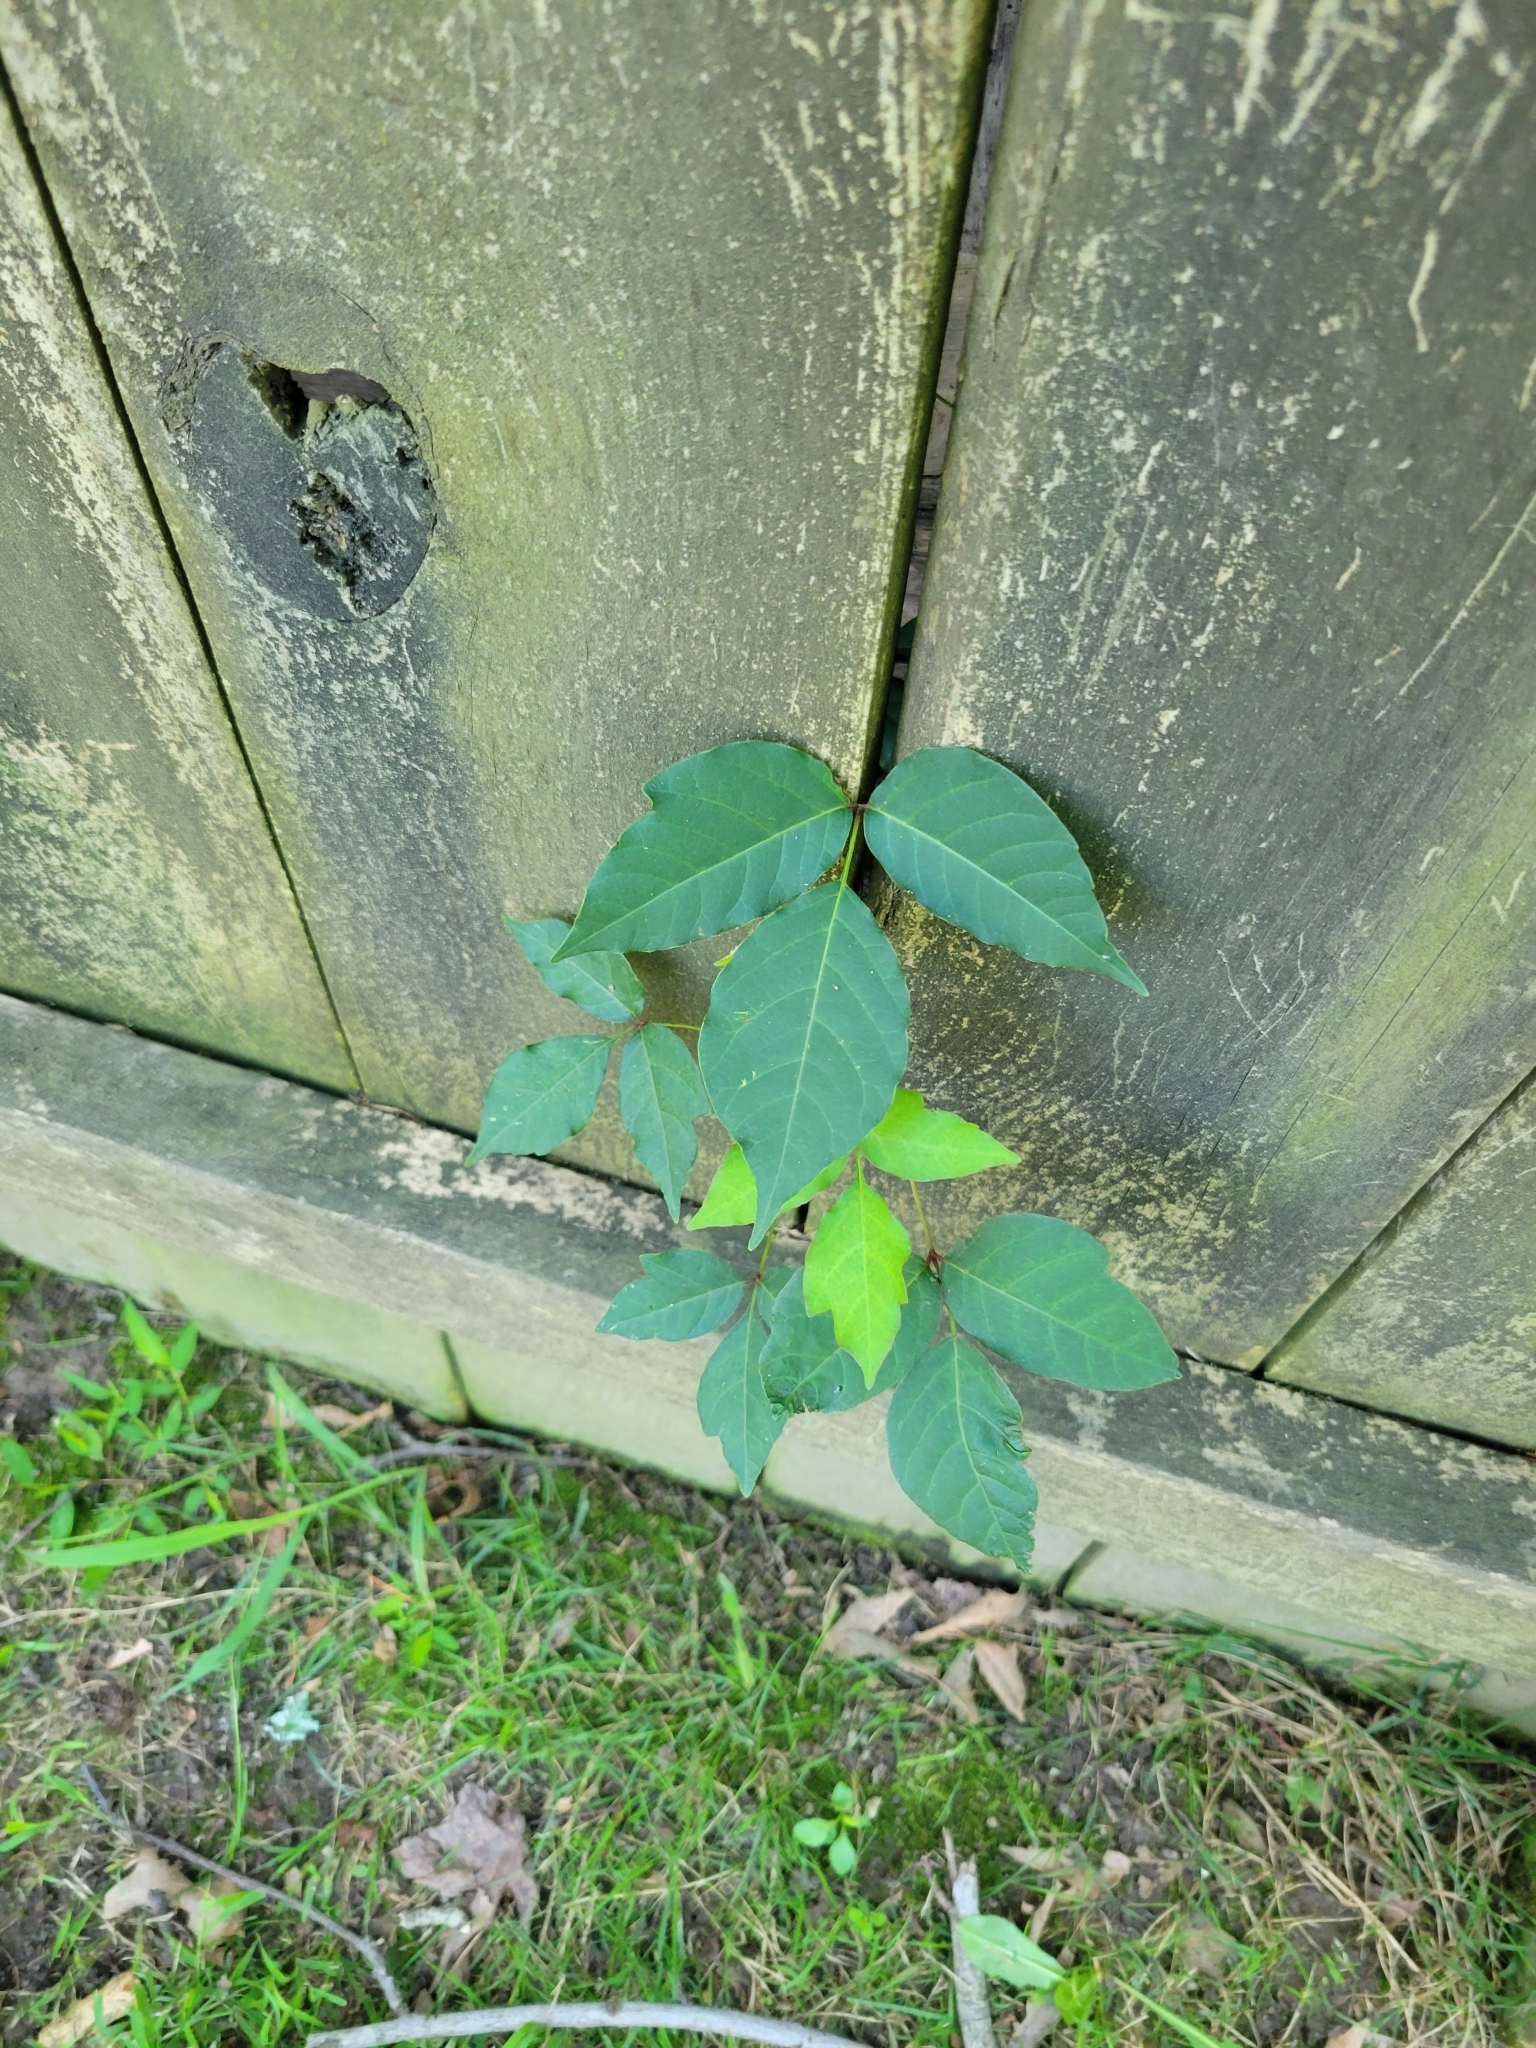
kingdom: Plantae
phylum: Tracheophyta
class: Magnoliopsida
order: Sapindales
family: Anacardiaceae
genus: Toxicodendron
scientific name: Toxicodendron radicans
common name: Poison ivy
